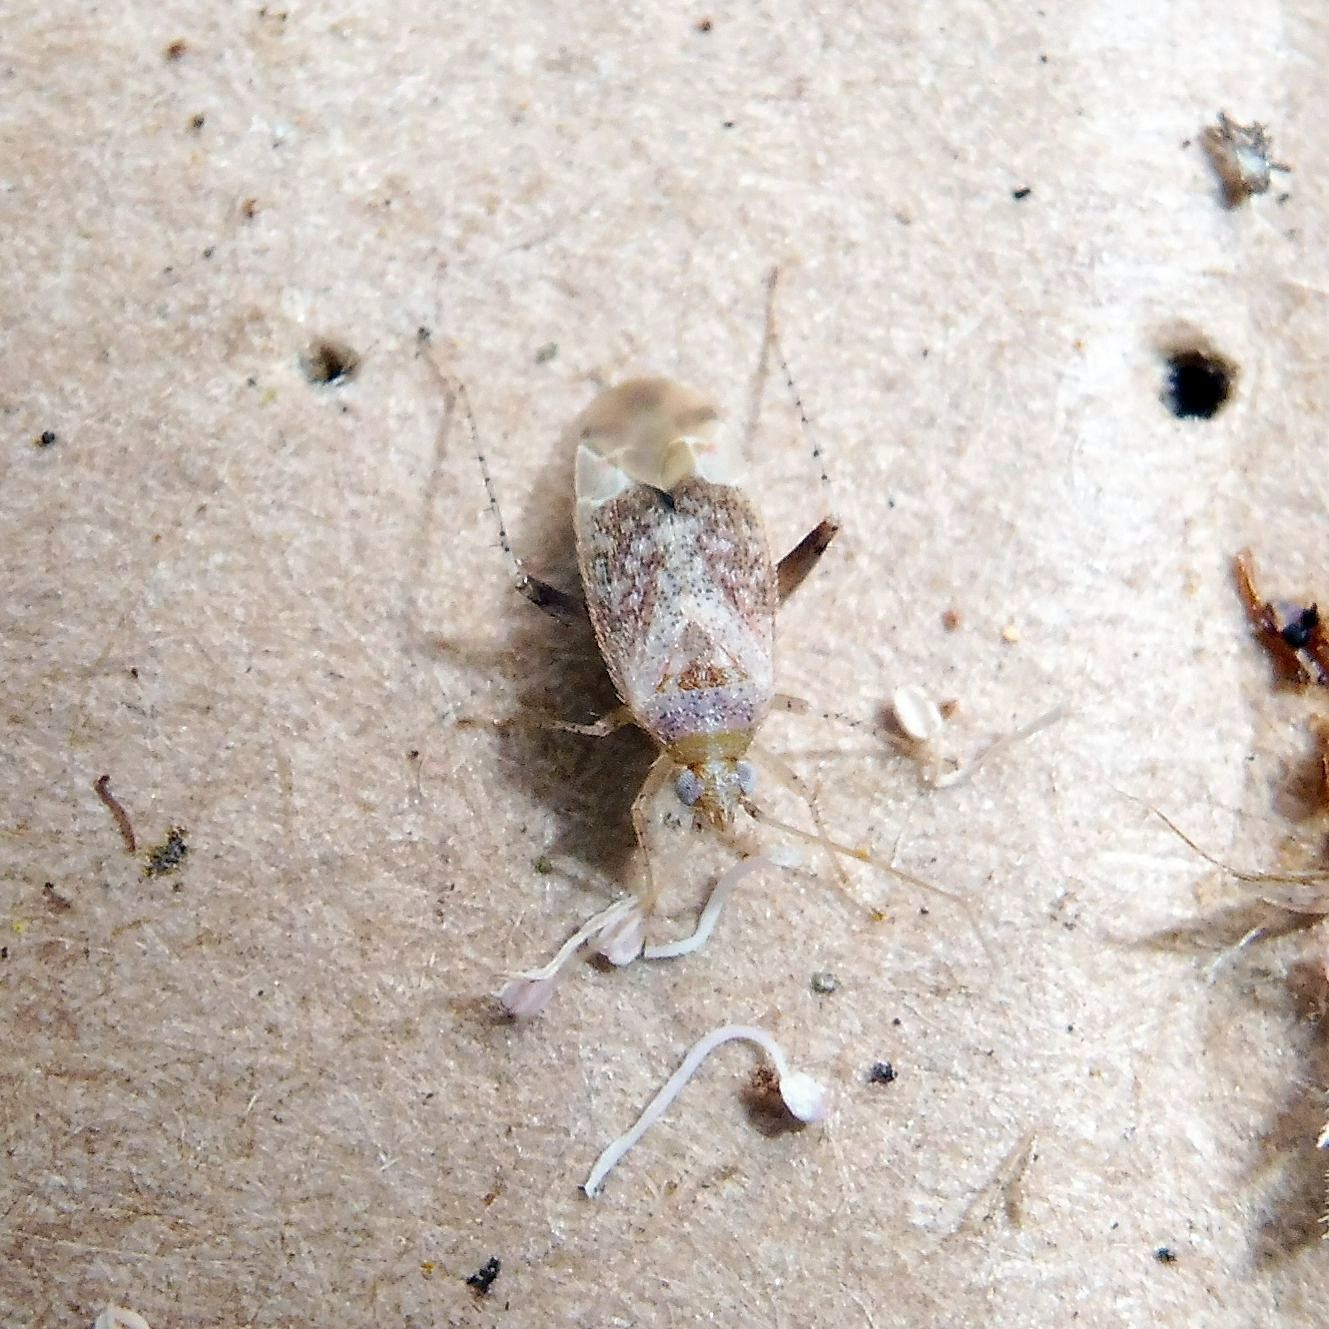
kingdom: Animalia
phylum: Arthropoda
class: Insecta
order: Hemiptera
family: Miridae
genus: Compsidolon
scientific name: Compsidolon salicellum
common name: Plant bug
